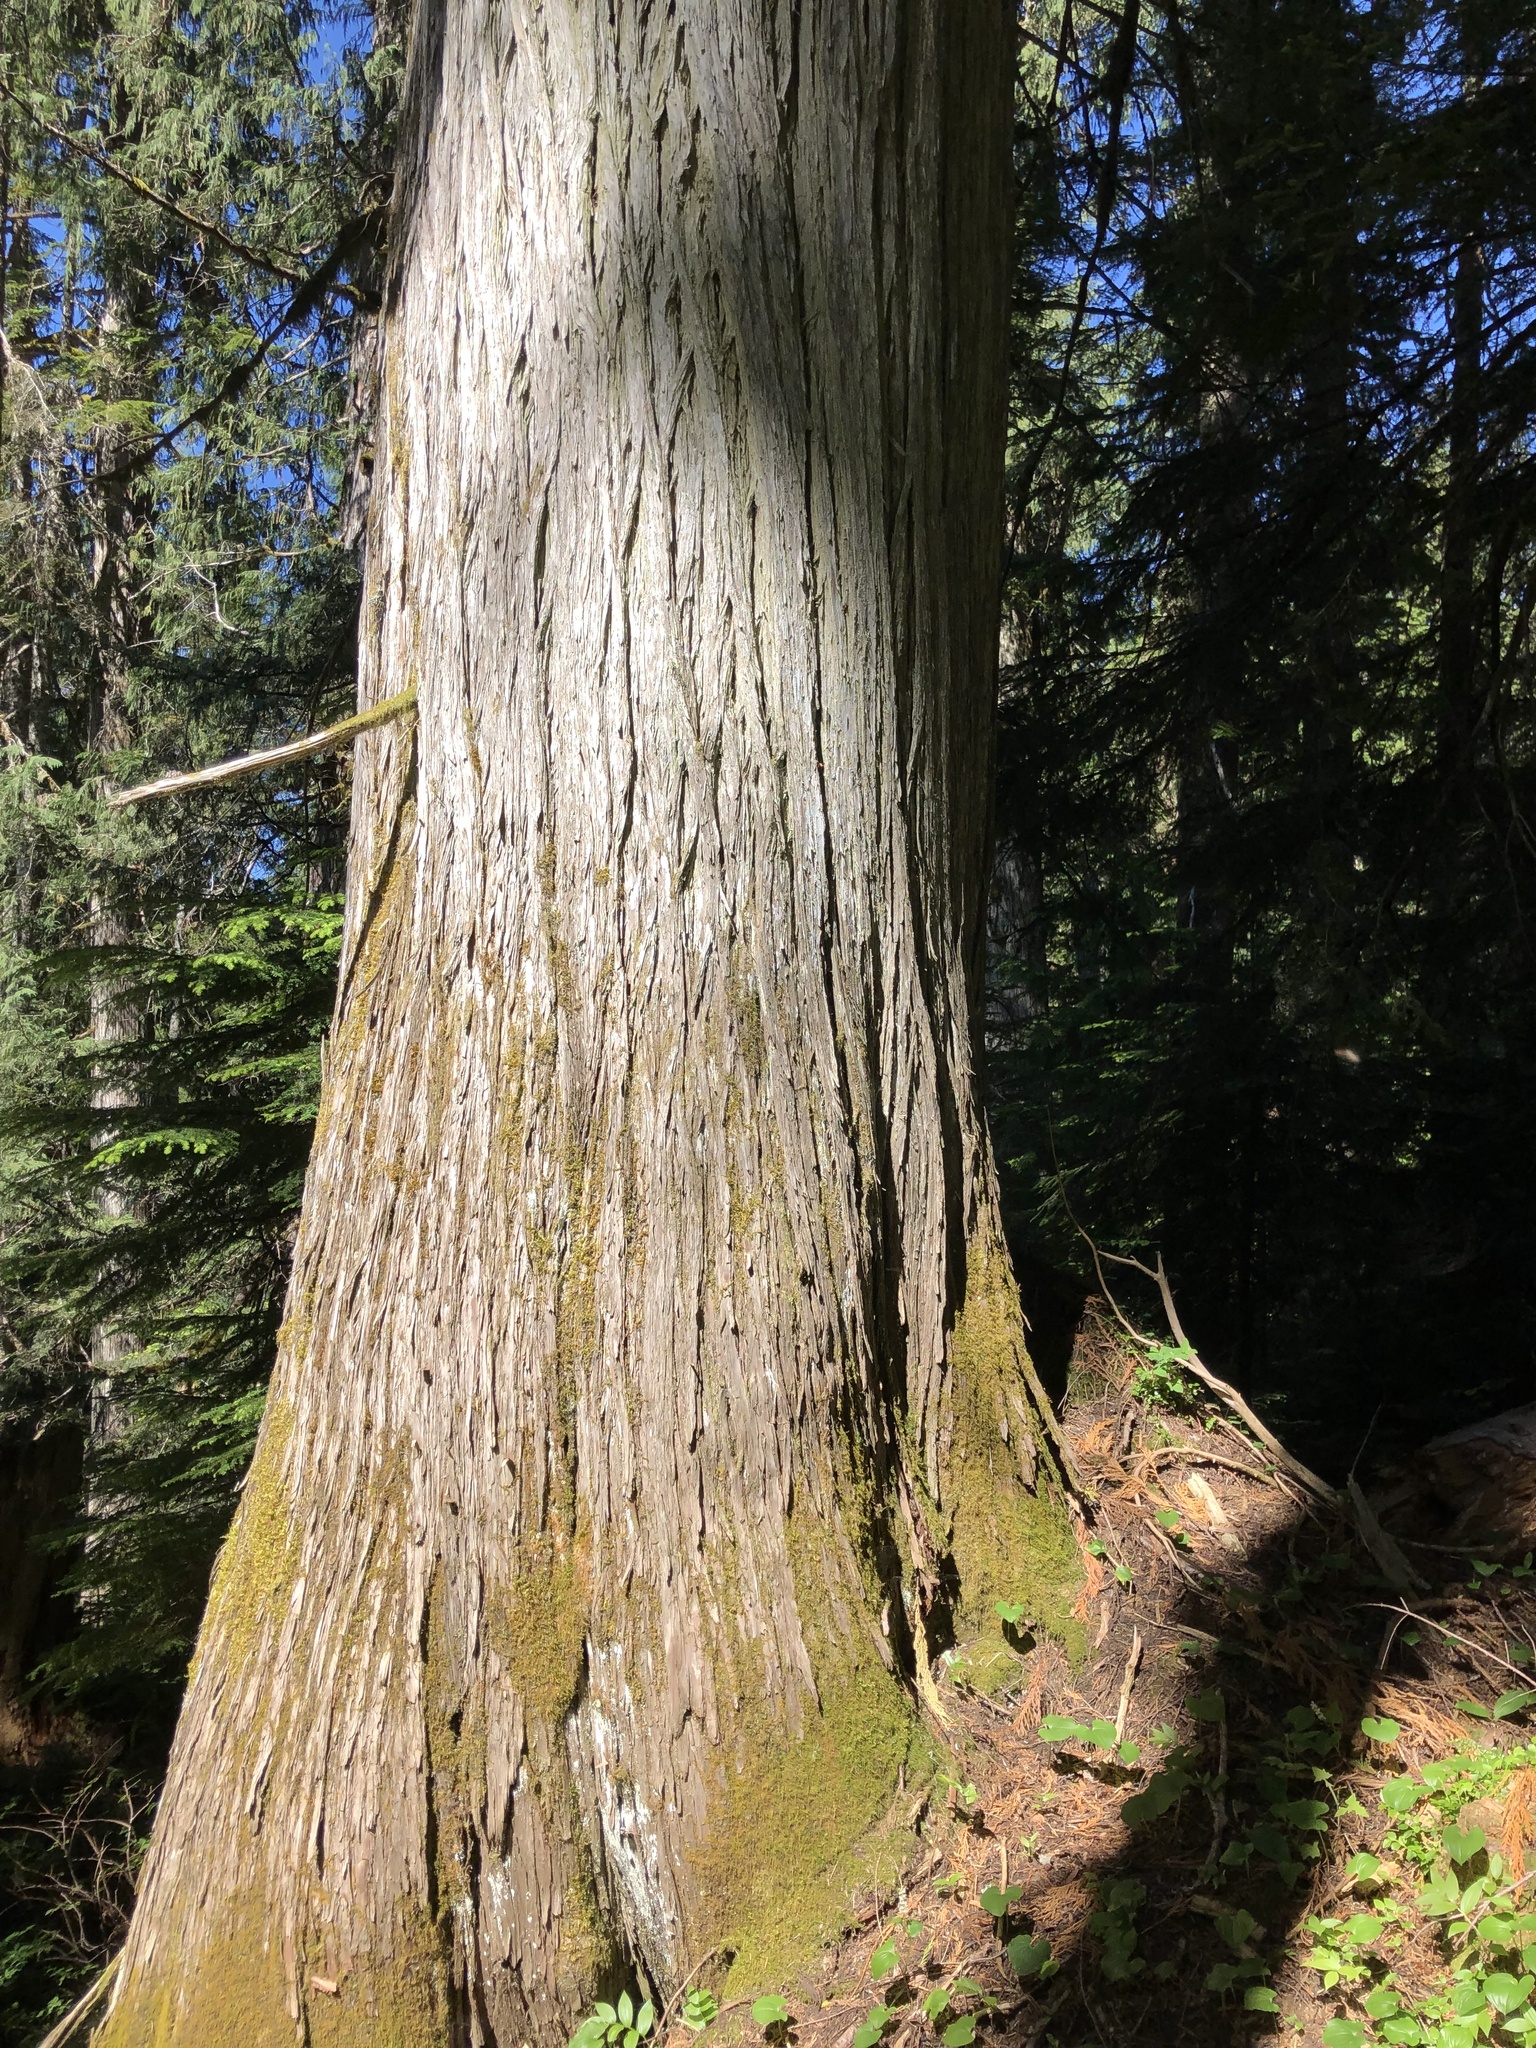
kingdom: Plantae
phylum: Tracheophyta
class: Pinopsida
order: Pinales
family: Cupressaceae
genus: Thuja
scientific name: Thuja plicata
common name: Western red-cedar
